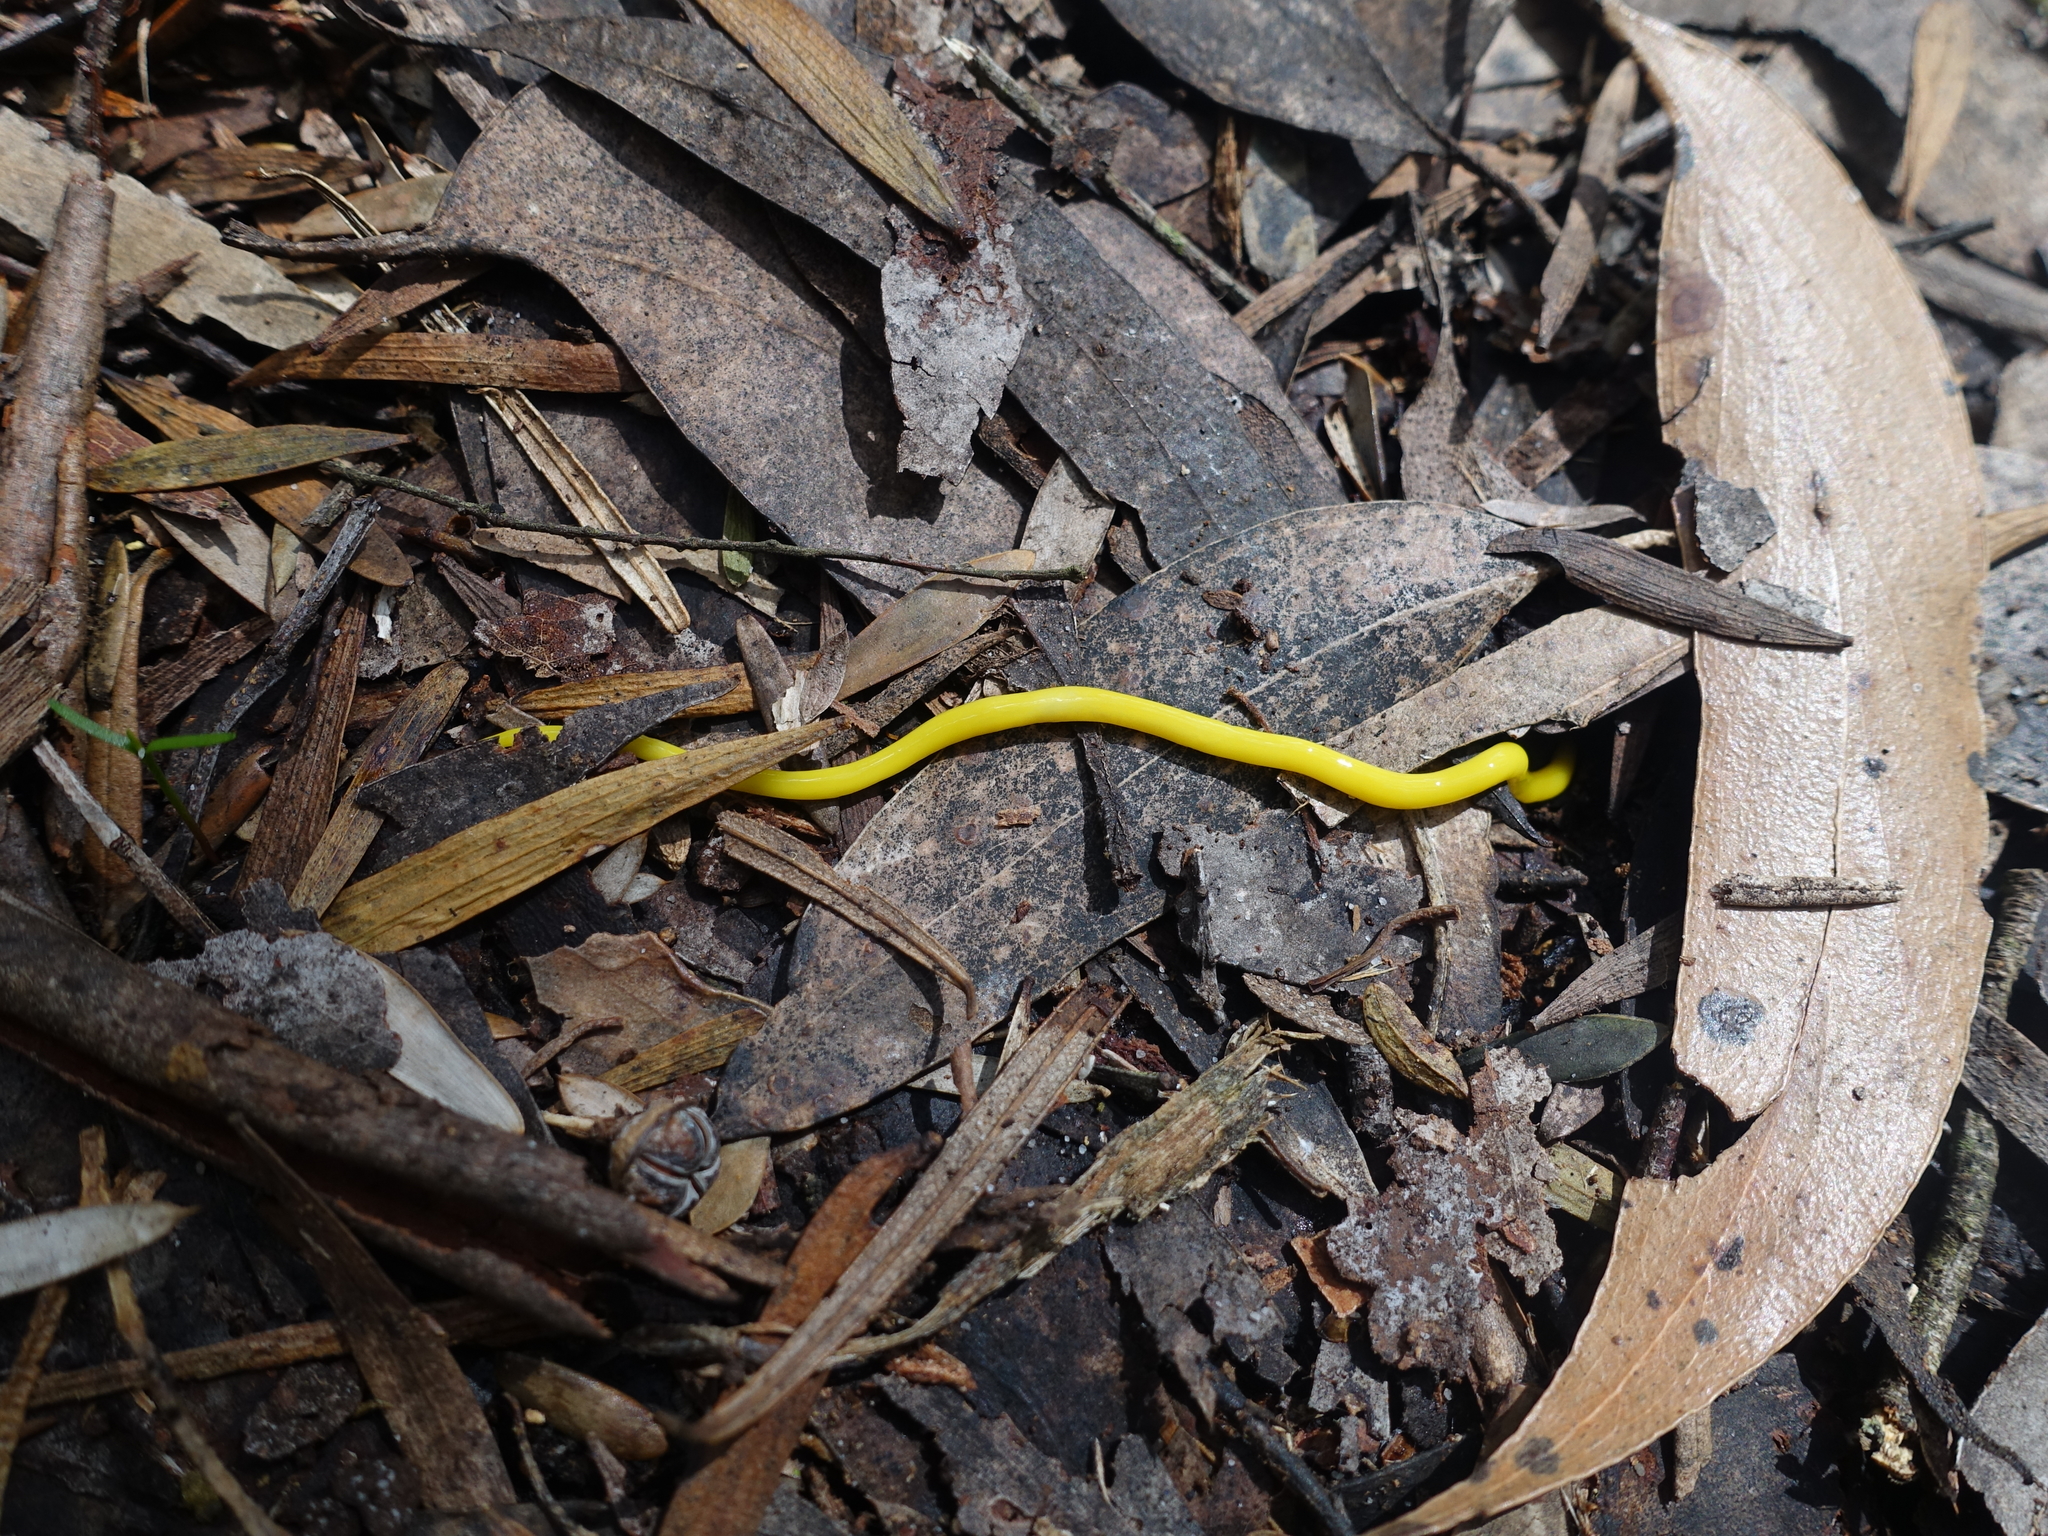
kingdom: Animalia
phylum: Platyhelminthes
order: Tricladida
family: Geoplanidae
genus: Fletchamia
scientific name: Fletchamia sugdeni
